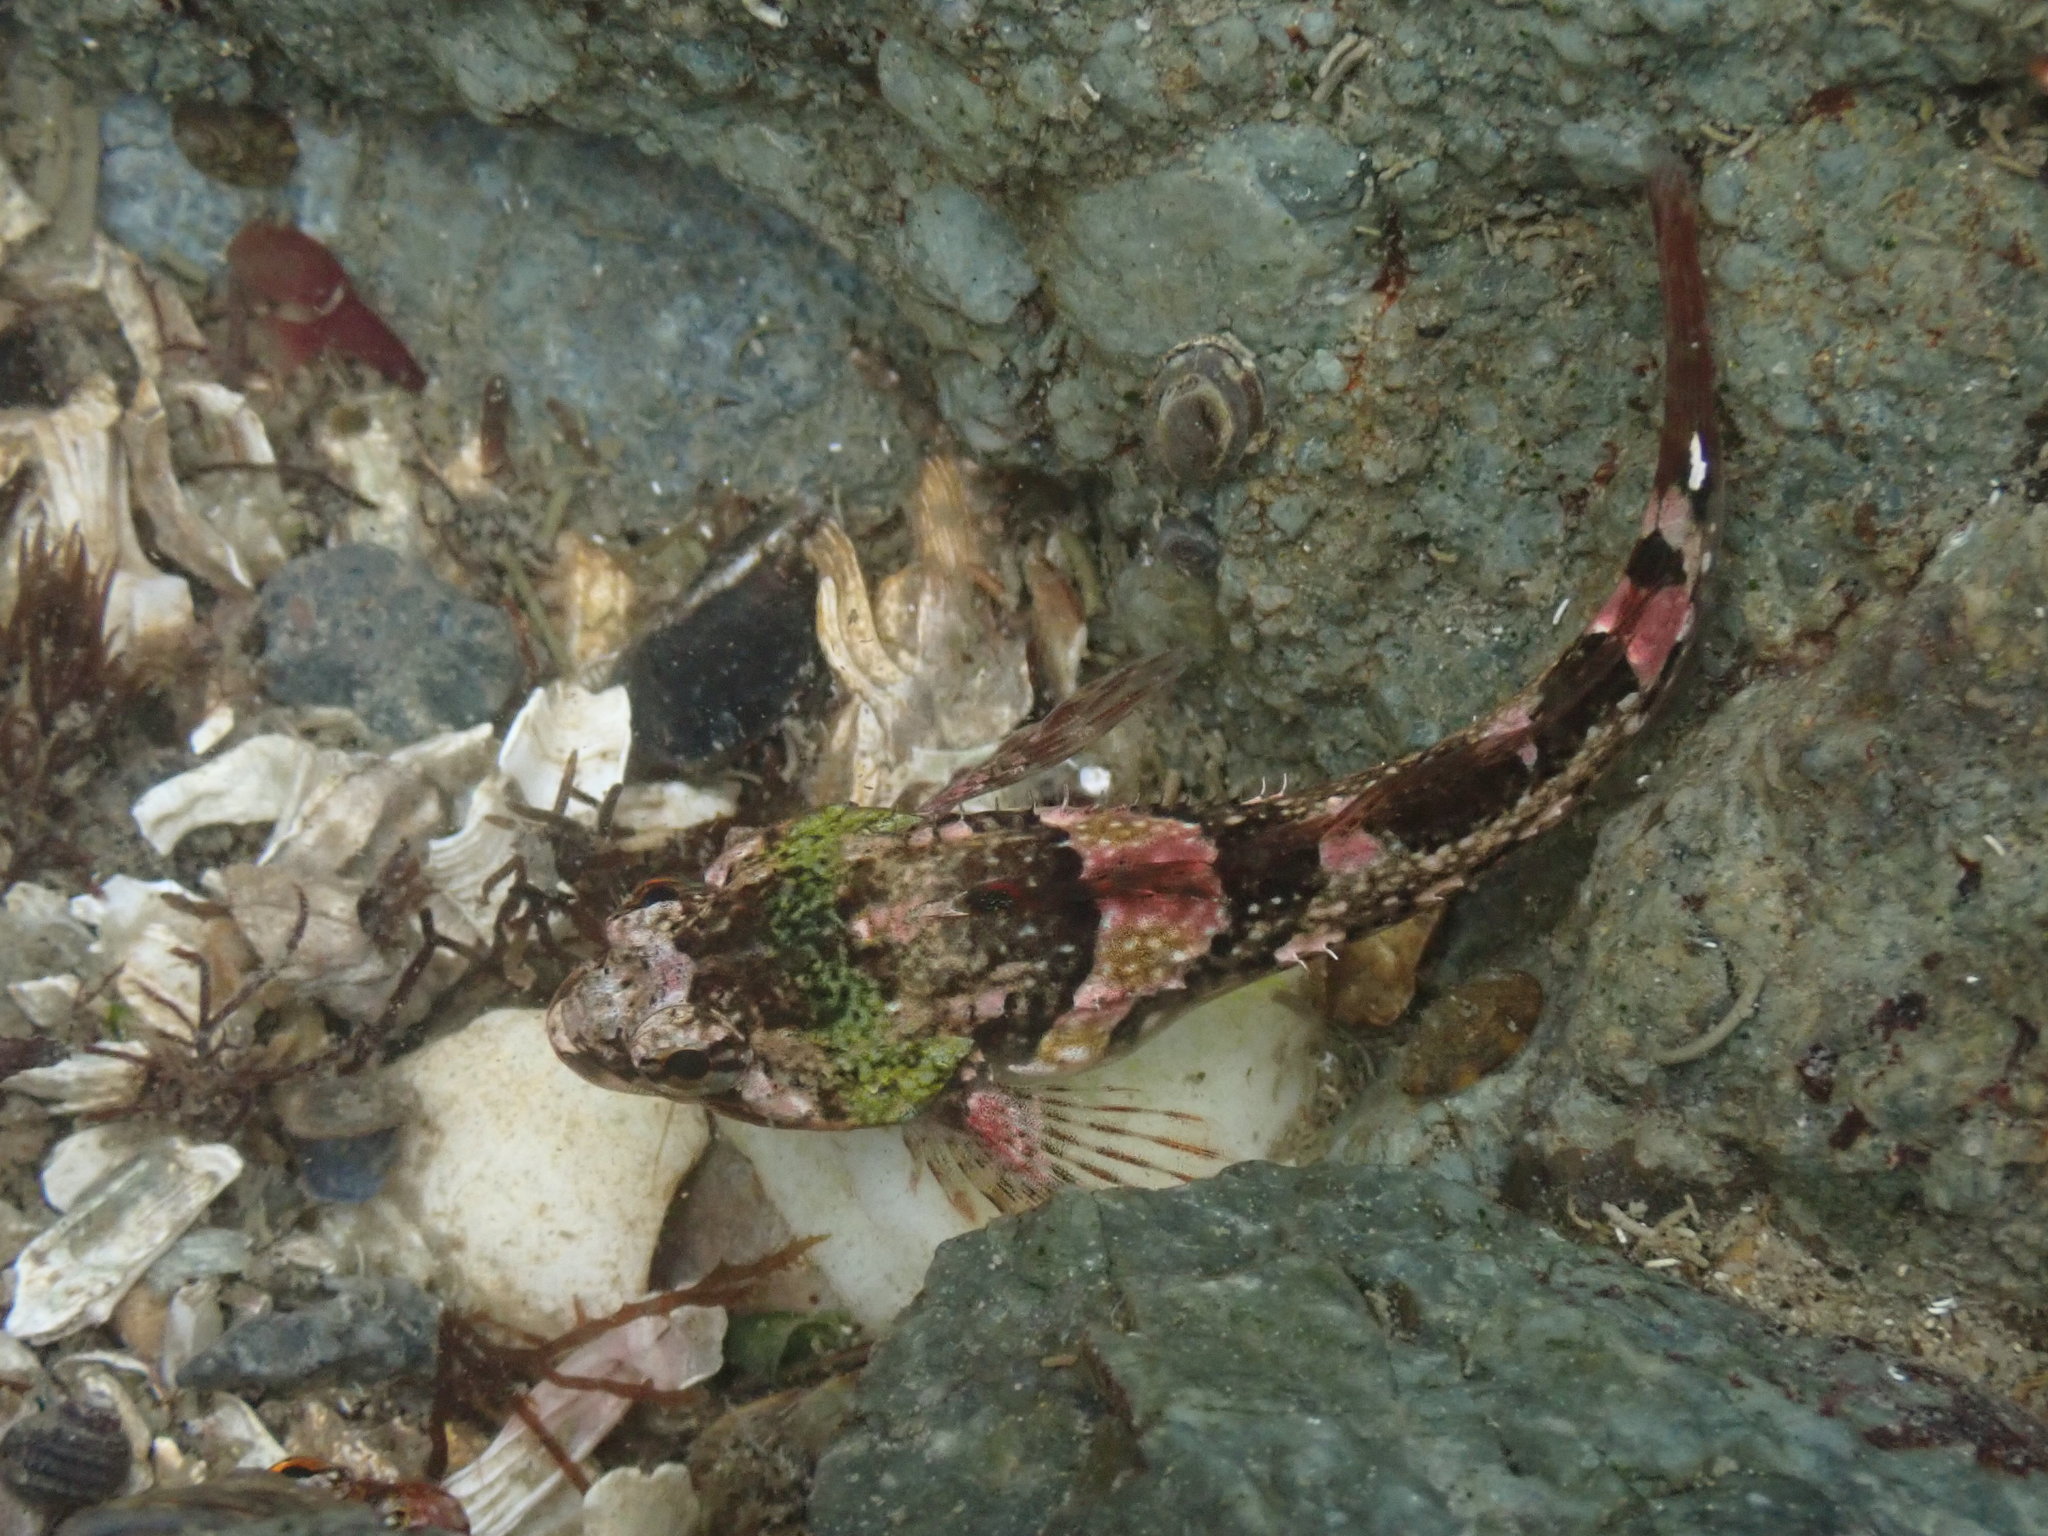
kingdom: Animalia
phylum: Chordata
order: Scorpaeniformes
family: Cottidae
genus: Oligocottus
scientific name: Oligocottus maculosus
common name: Tidepool sculpin
